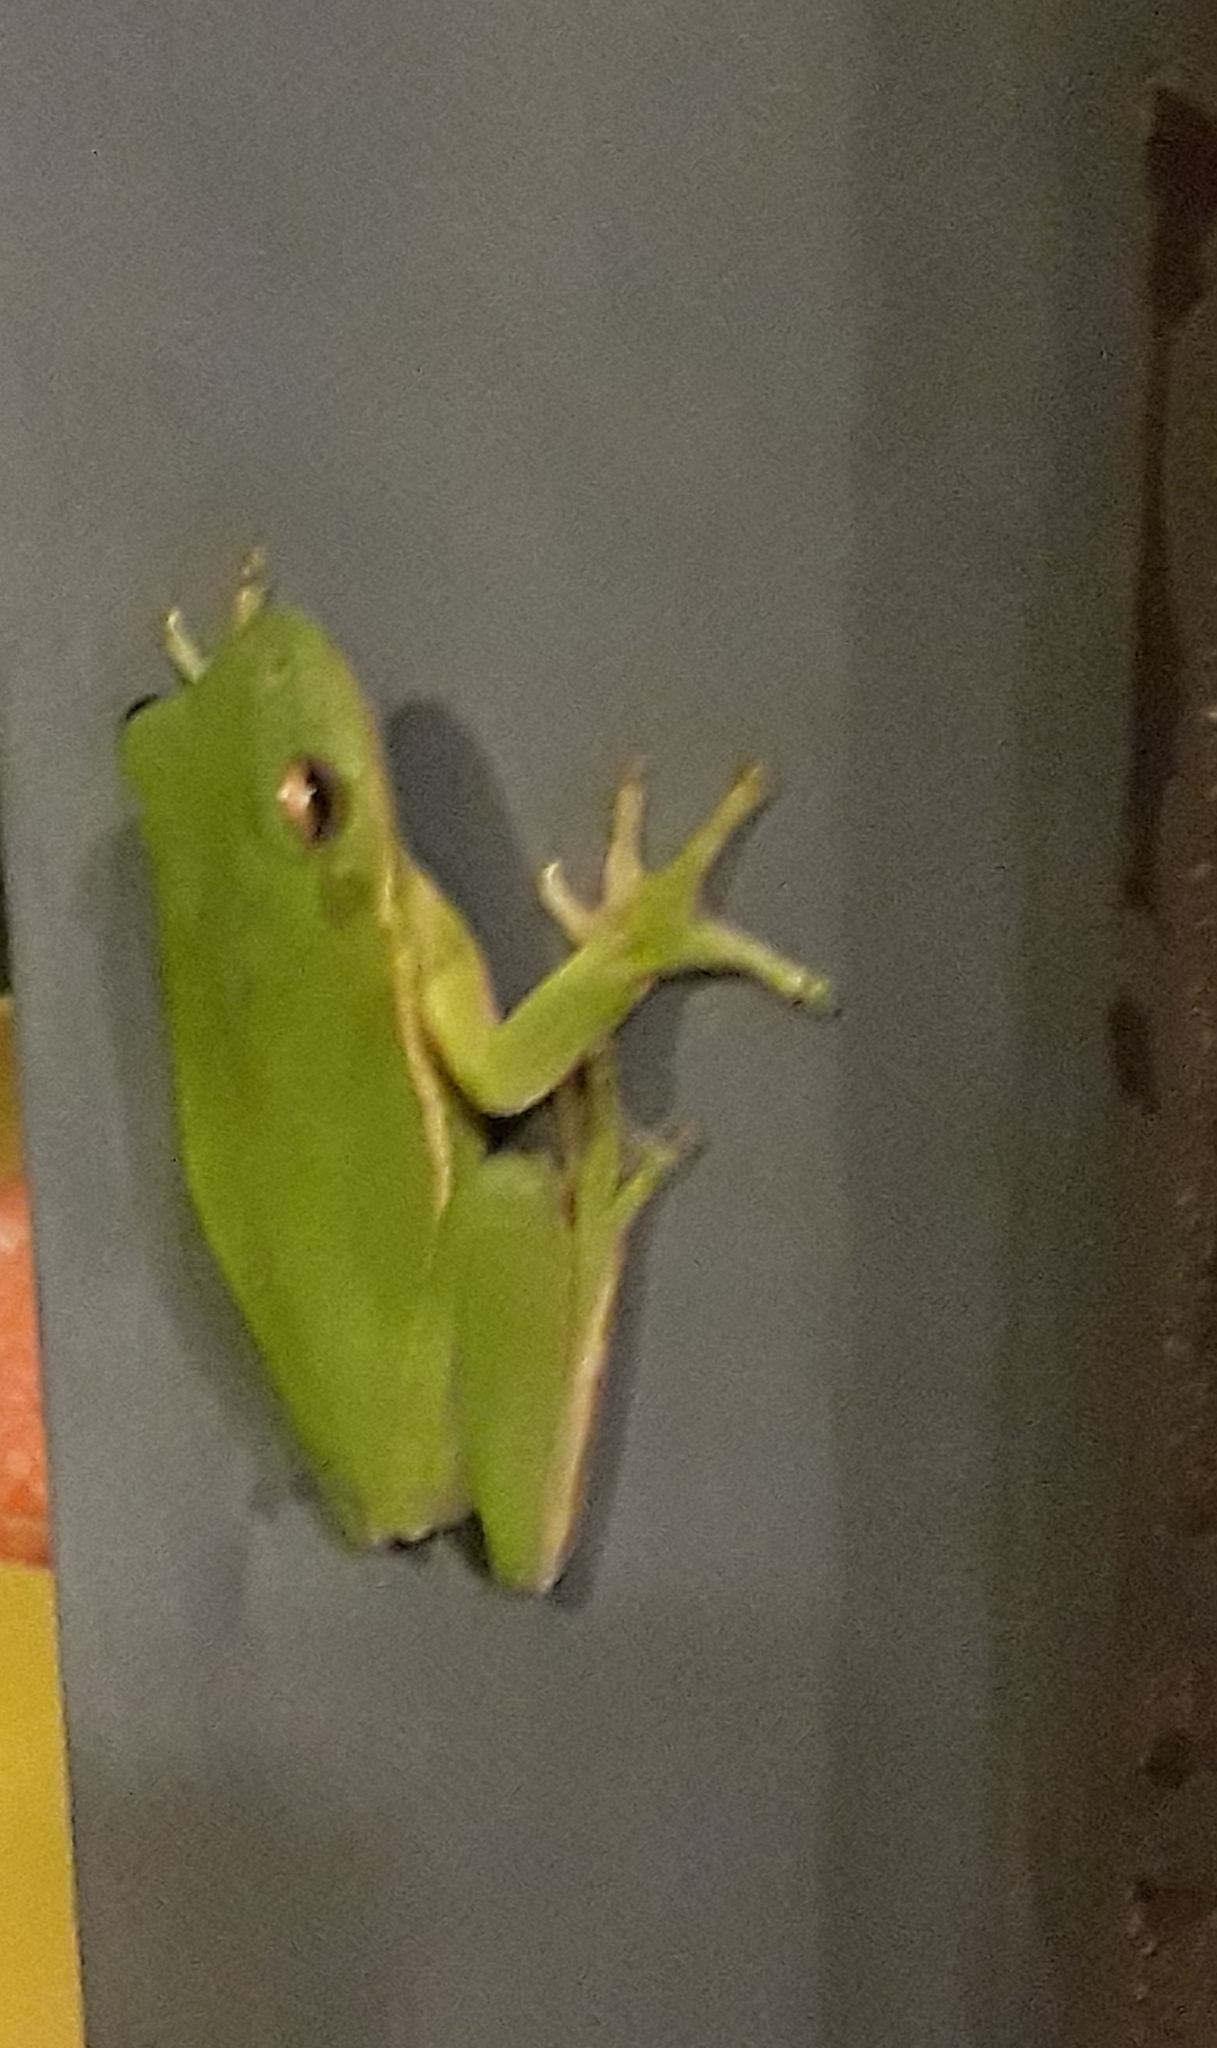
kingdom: Animalia
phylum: Chordata
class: Amphibia
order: Anura
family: Hylidae
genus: Dryophytes
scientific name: Dryophytes cinereus
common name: Green treefrog
